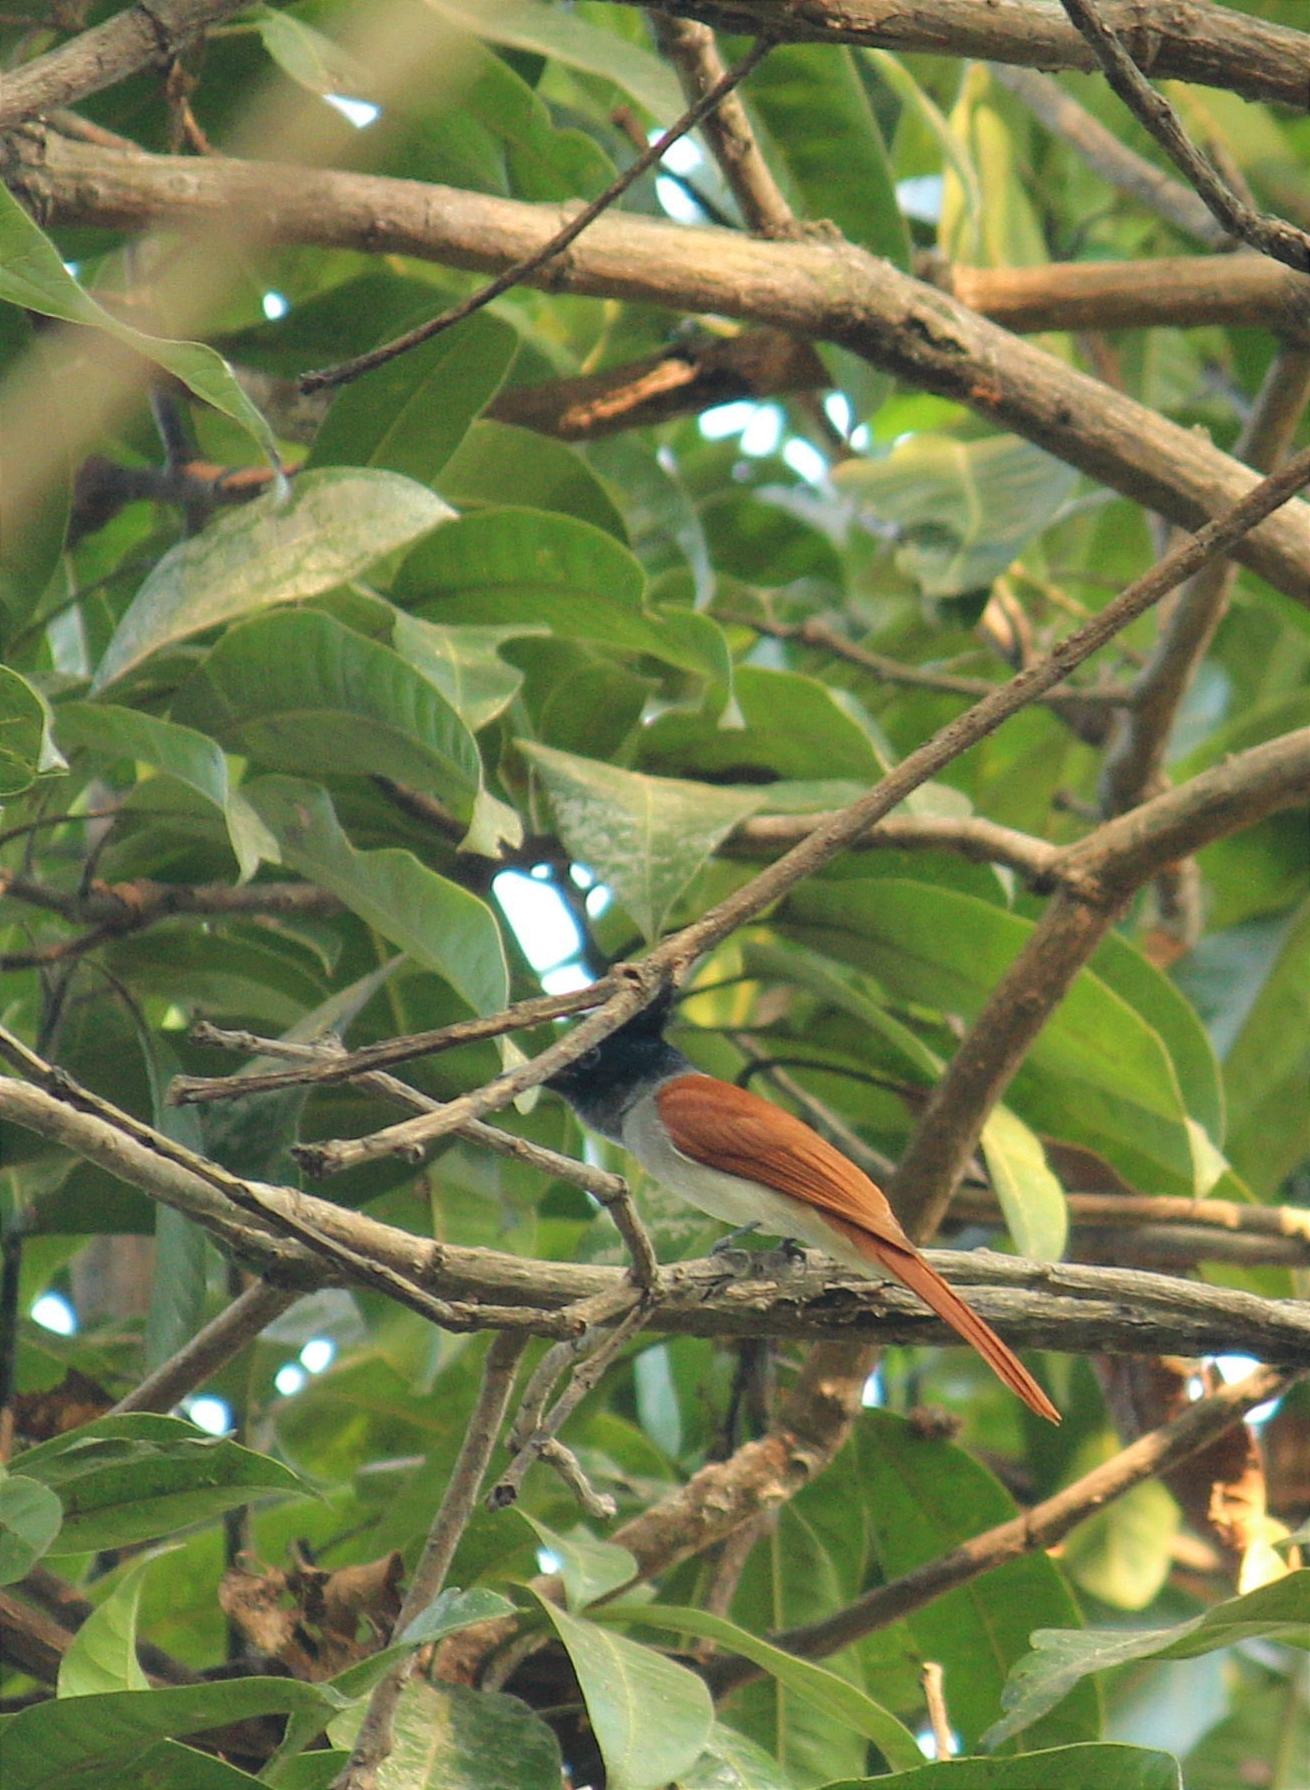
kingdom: Animalia
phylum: Chordata
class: Aves
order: Passeriformes
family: Monarchidae
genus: Terpsiphone
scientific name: Terpsiphone paradisi
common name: Indian paradise flycatcher
